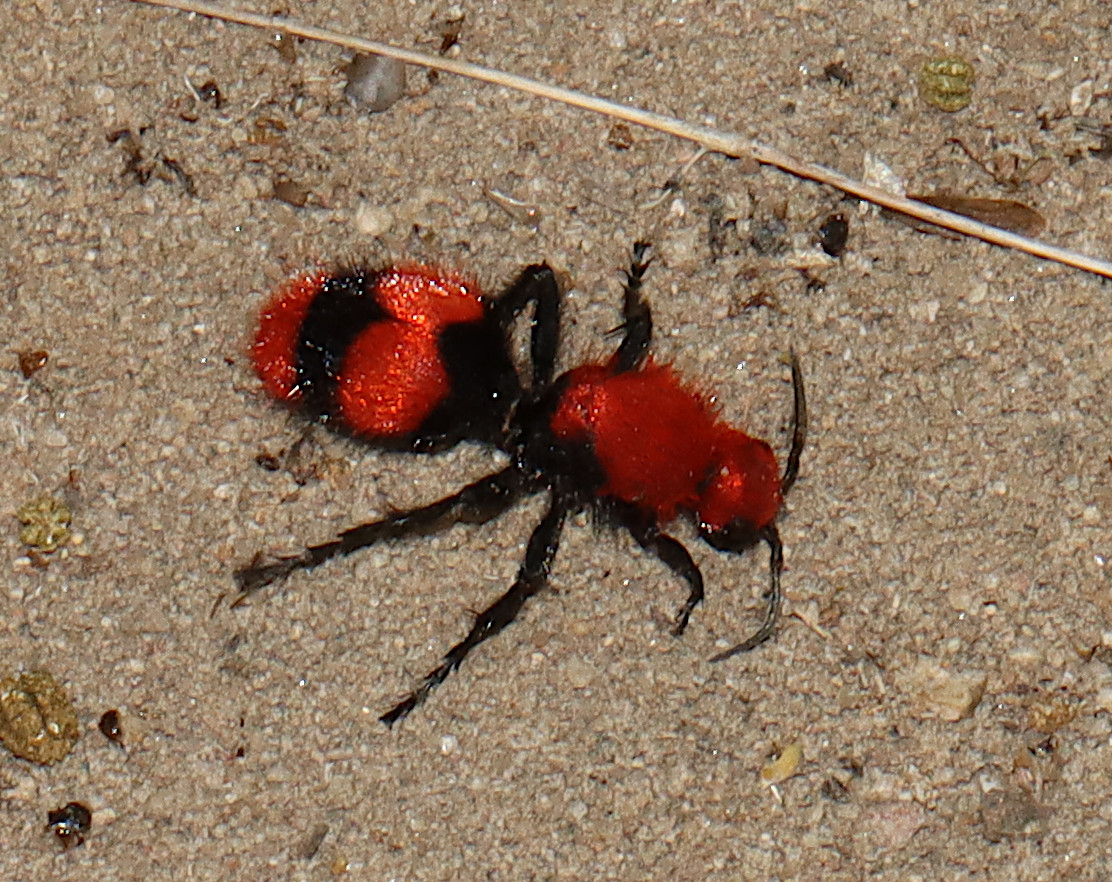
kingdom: Animalia
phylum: Arthropoda
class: Insecta
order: Hymenoptera
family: Mutillidae
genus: Dasymutilla
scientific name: Dasymutilla occidentalis
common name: Common eastern velvet ant
